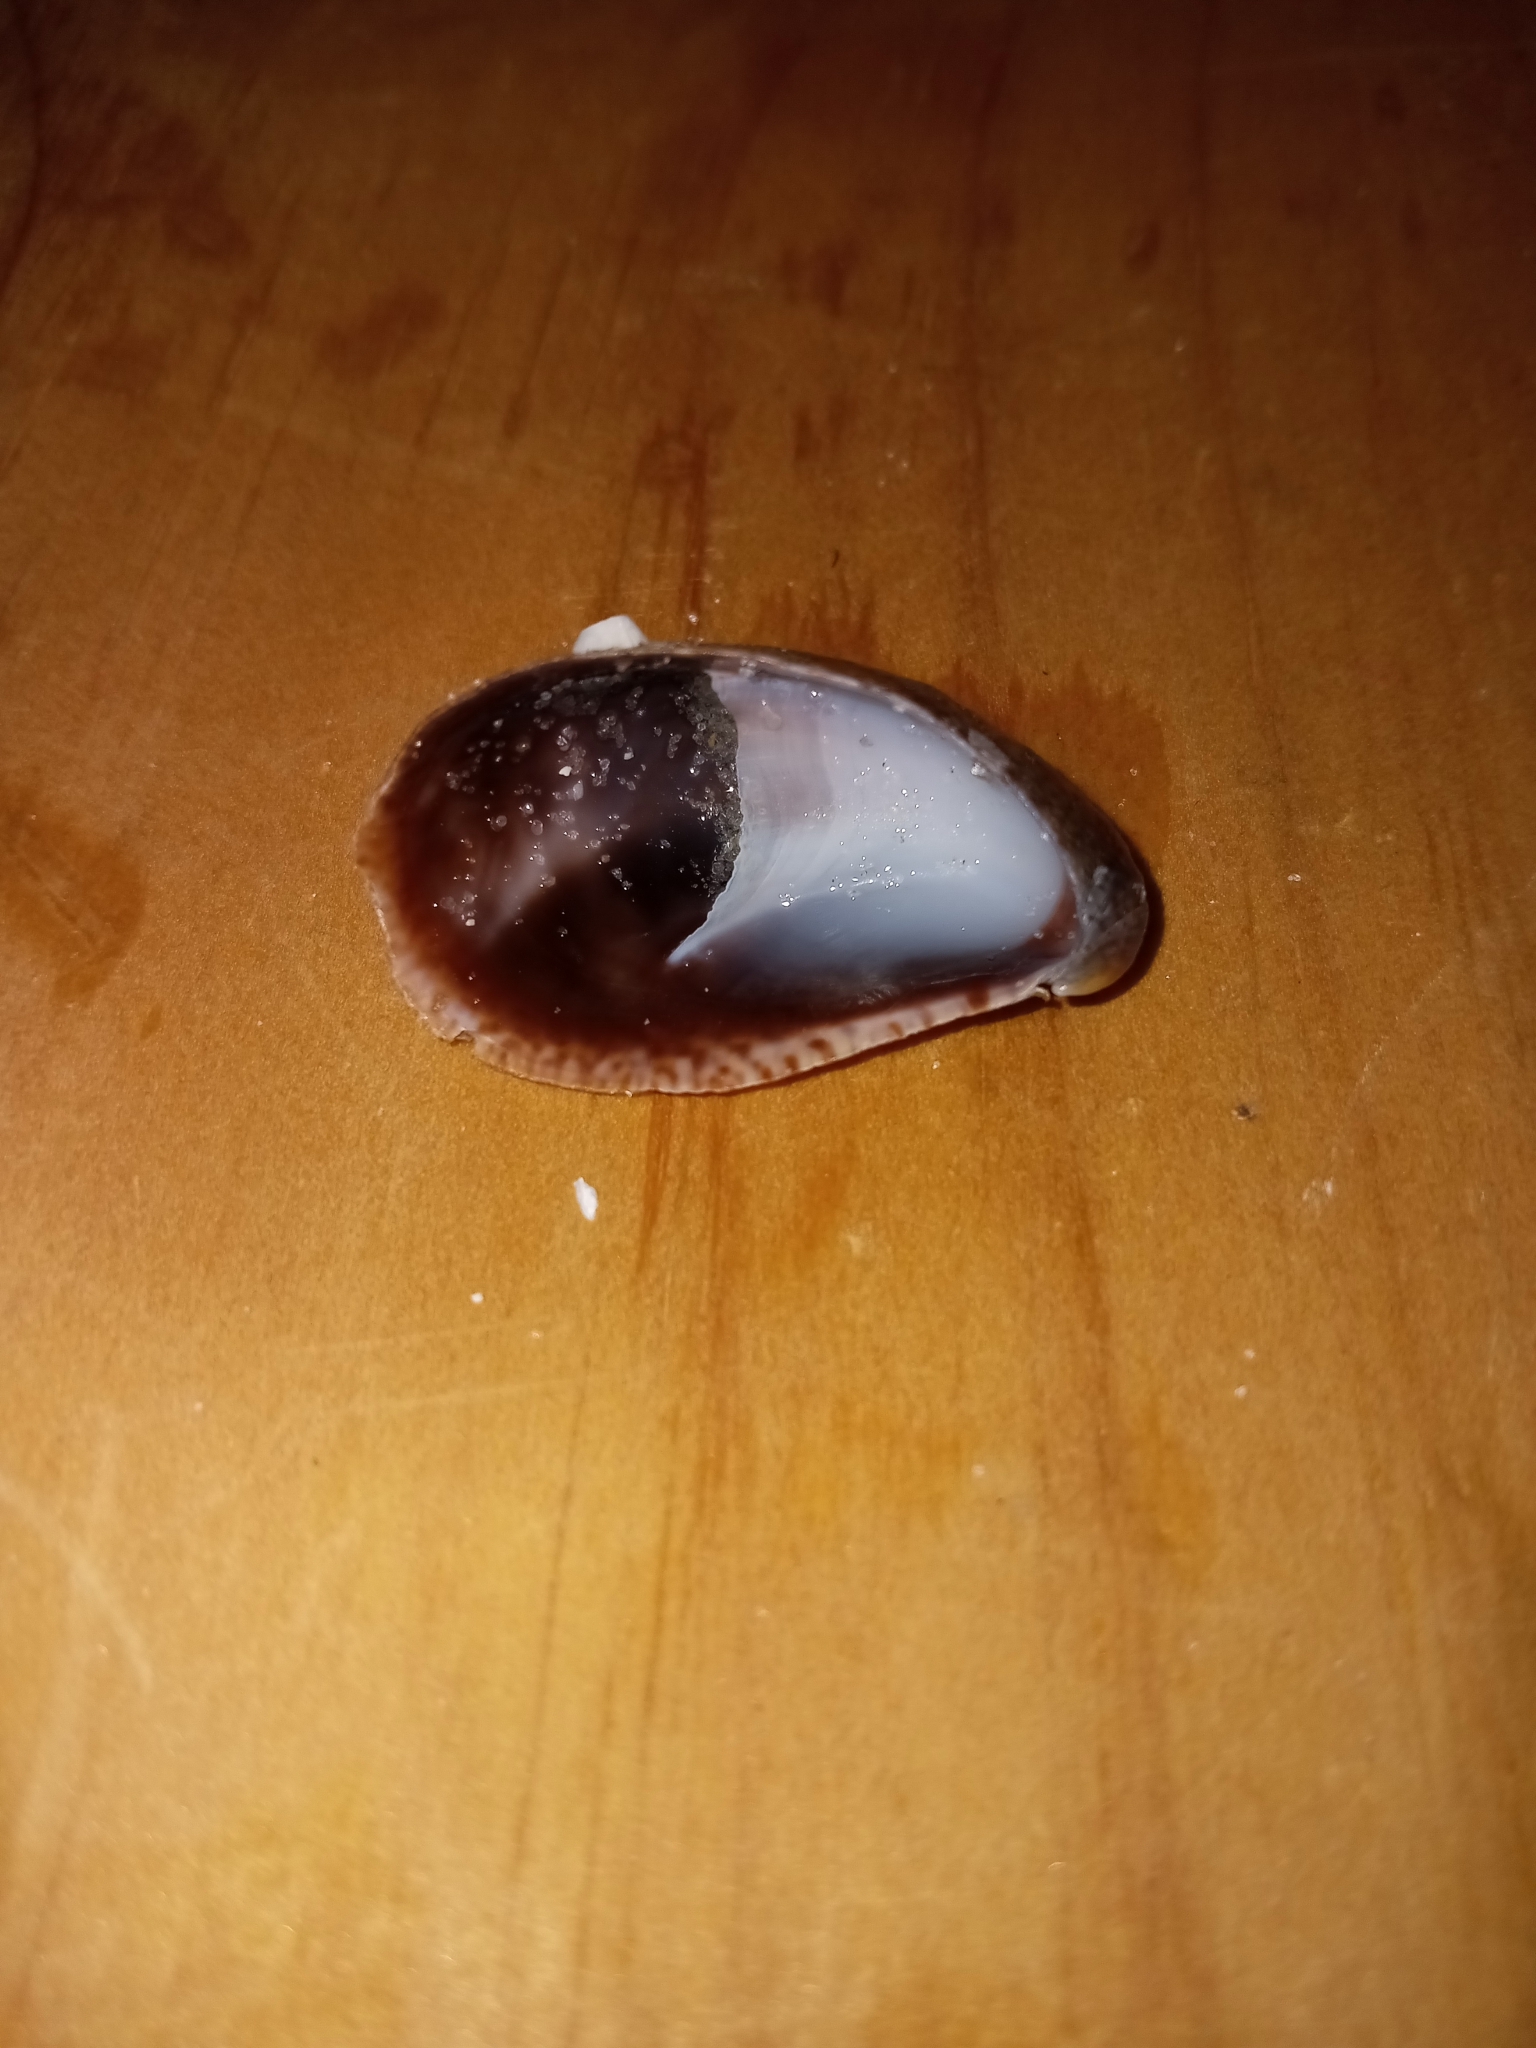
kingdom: Animalia
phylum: Mollusca
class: Gastropoda
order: Littorinimorpha
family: Calyptraeidae
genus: Crepidula
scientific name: Crepidula fornicata
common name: Slipper limpet
